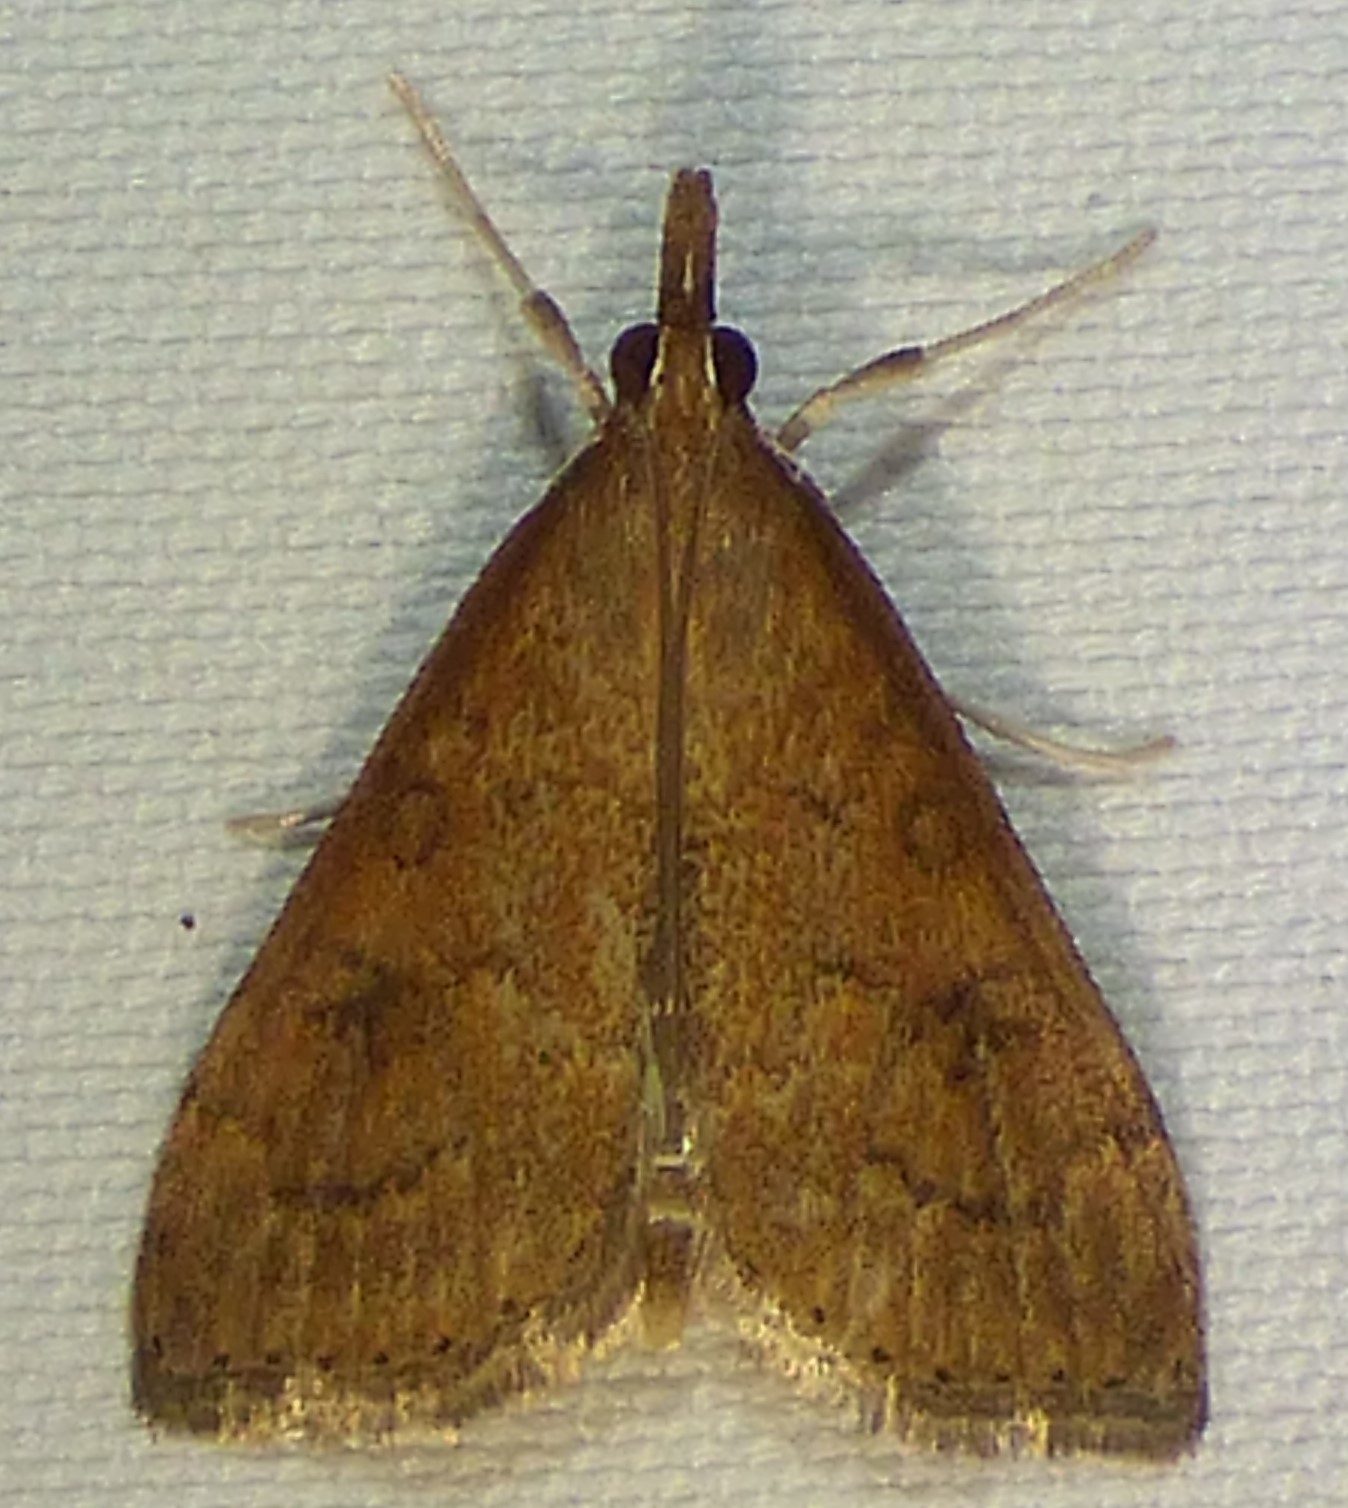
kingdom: Animalia
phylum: Arthropoda
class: Insecta
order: Lepidoptera
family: Crambidae
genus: Udea
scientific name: Udea rubigalis
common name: Celery leaftier moth
